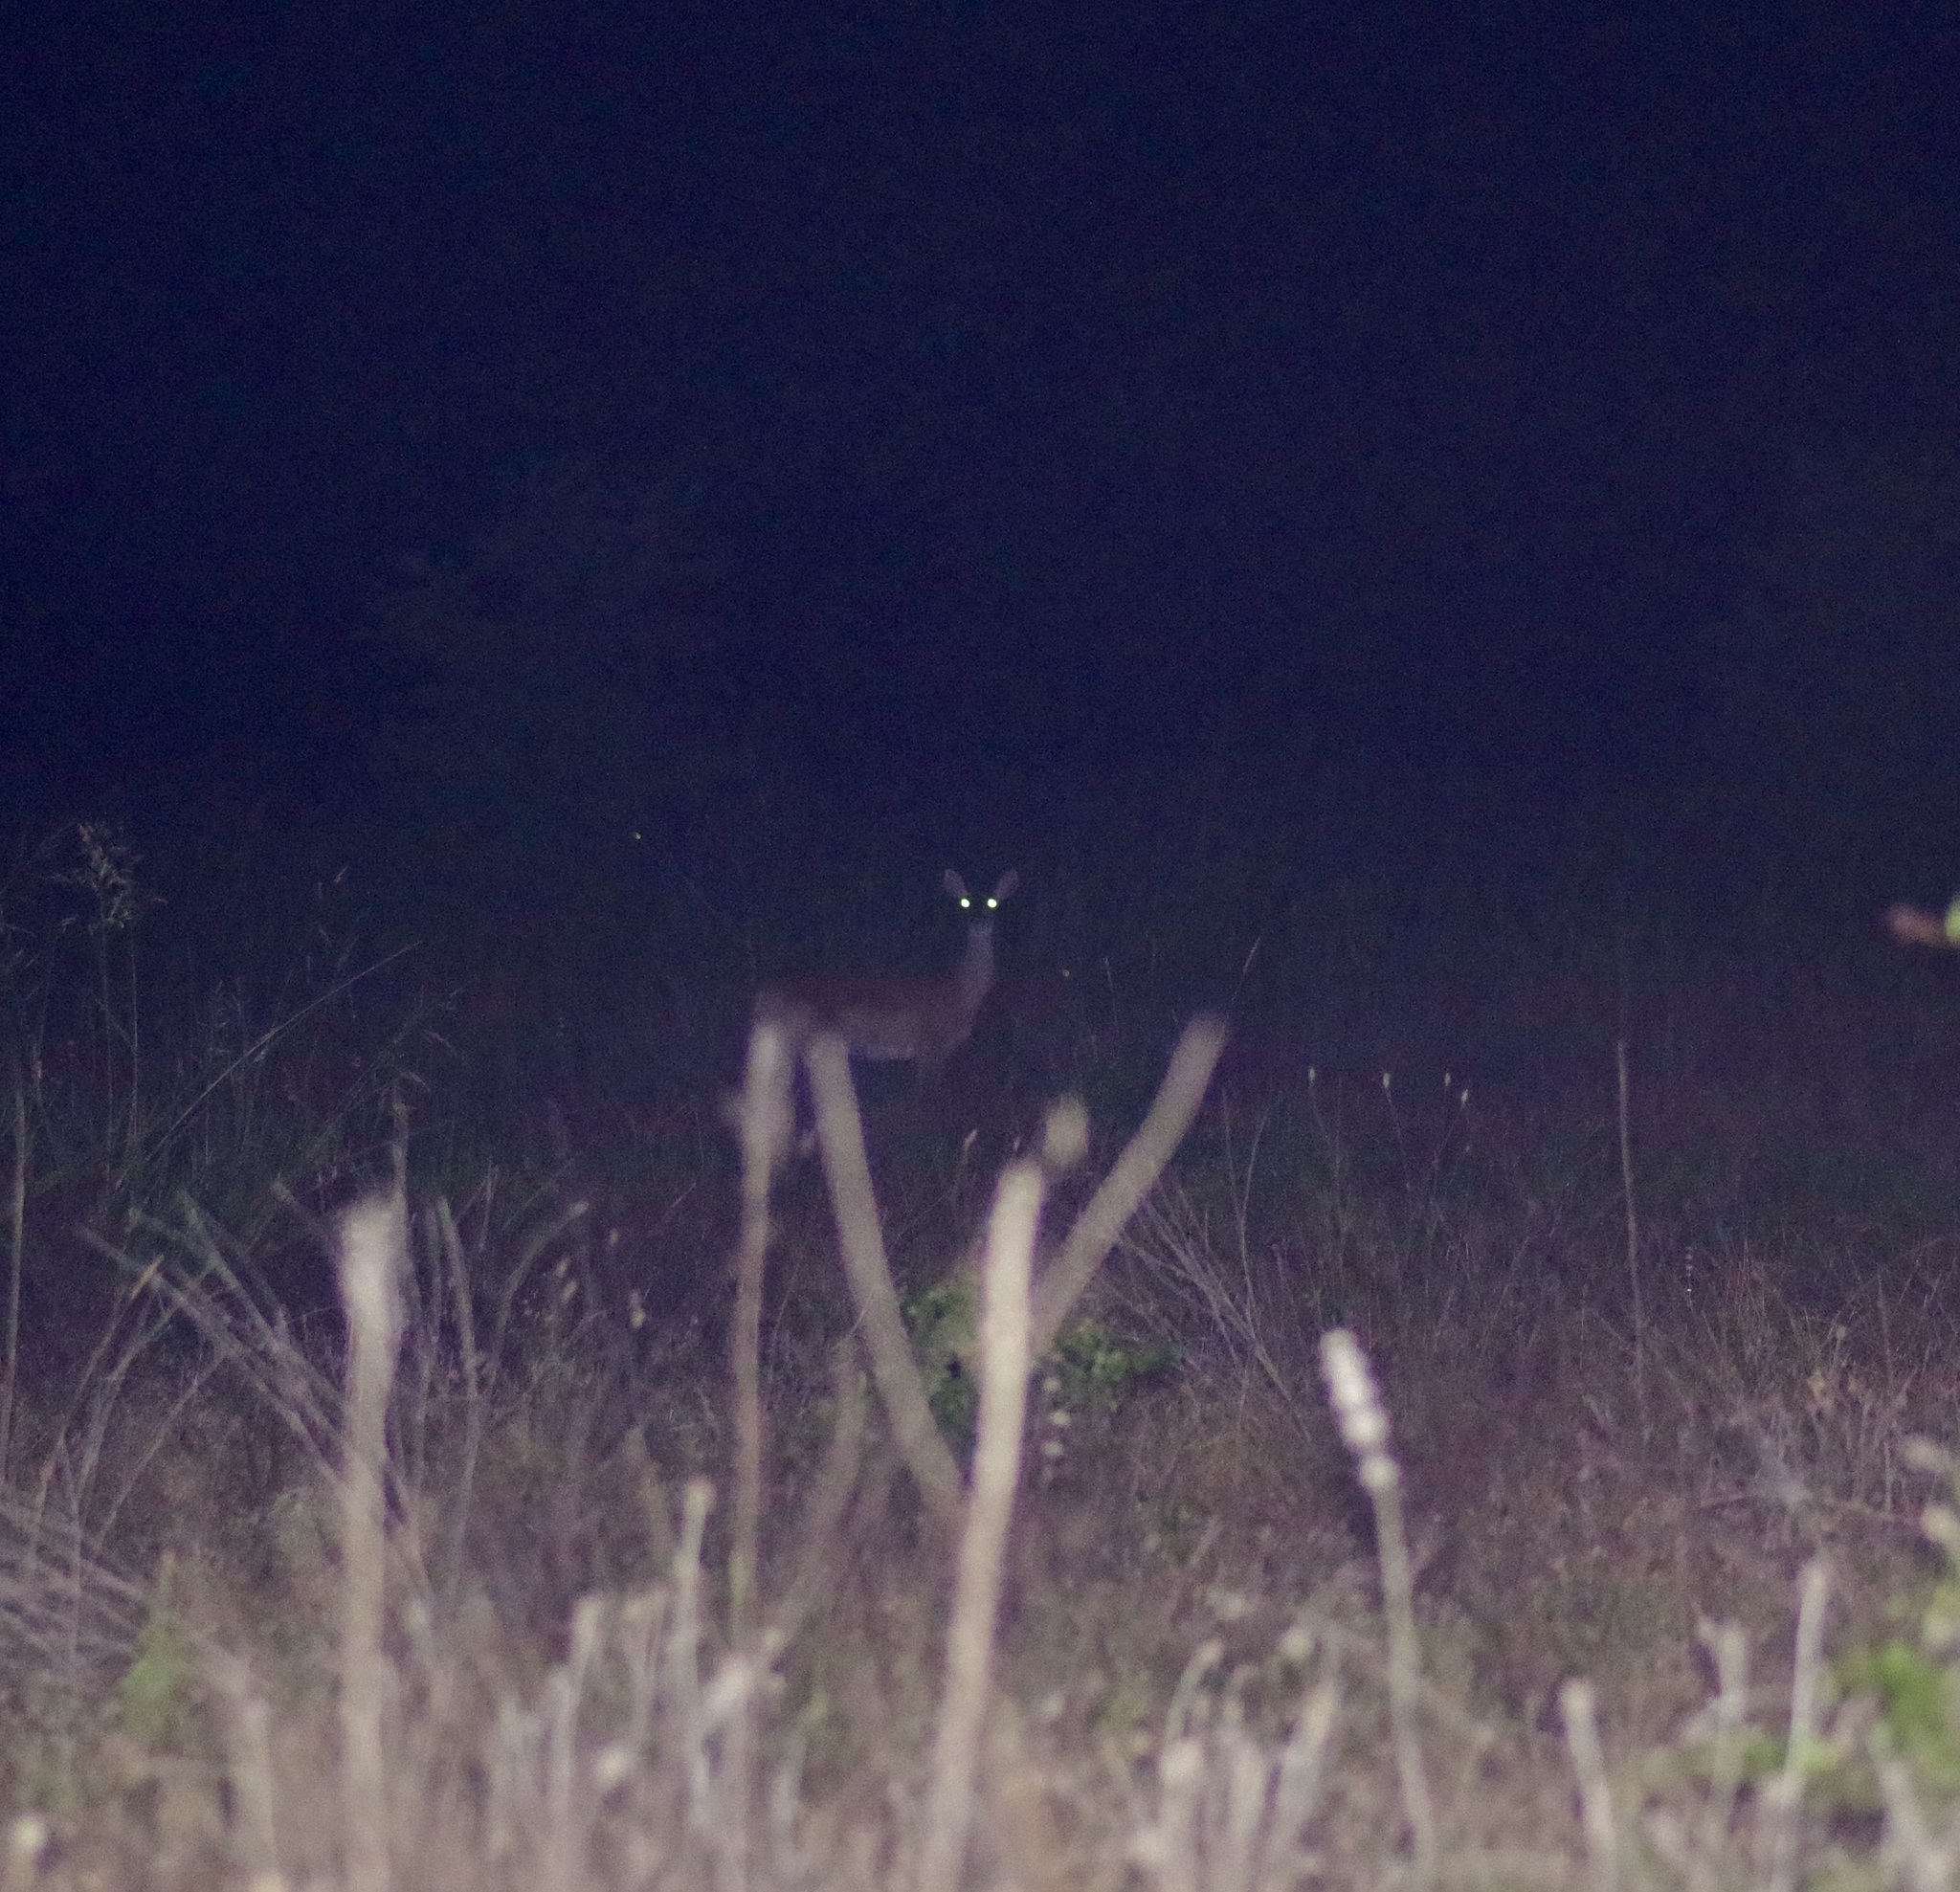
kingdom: Animalia
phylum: Chordata
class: Mammalia
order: Artiodactyla
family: Cervidae
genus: Odocoileus
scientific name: Odocoileus virginianus
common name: White-tailed deer
